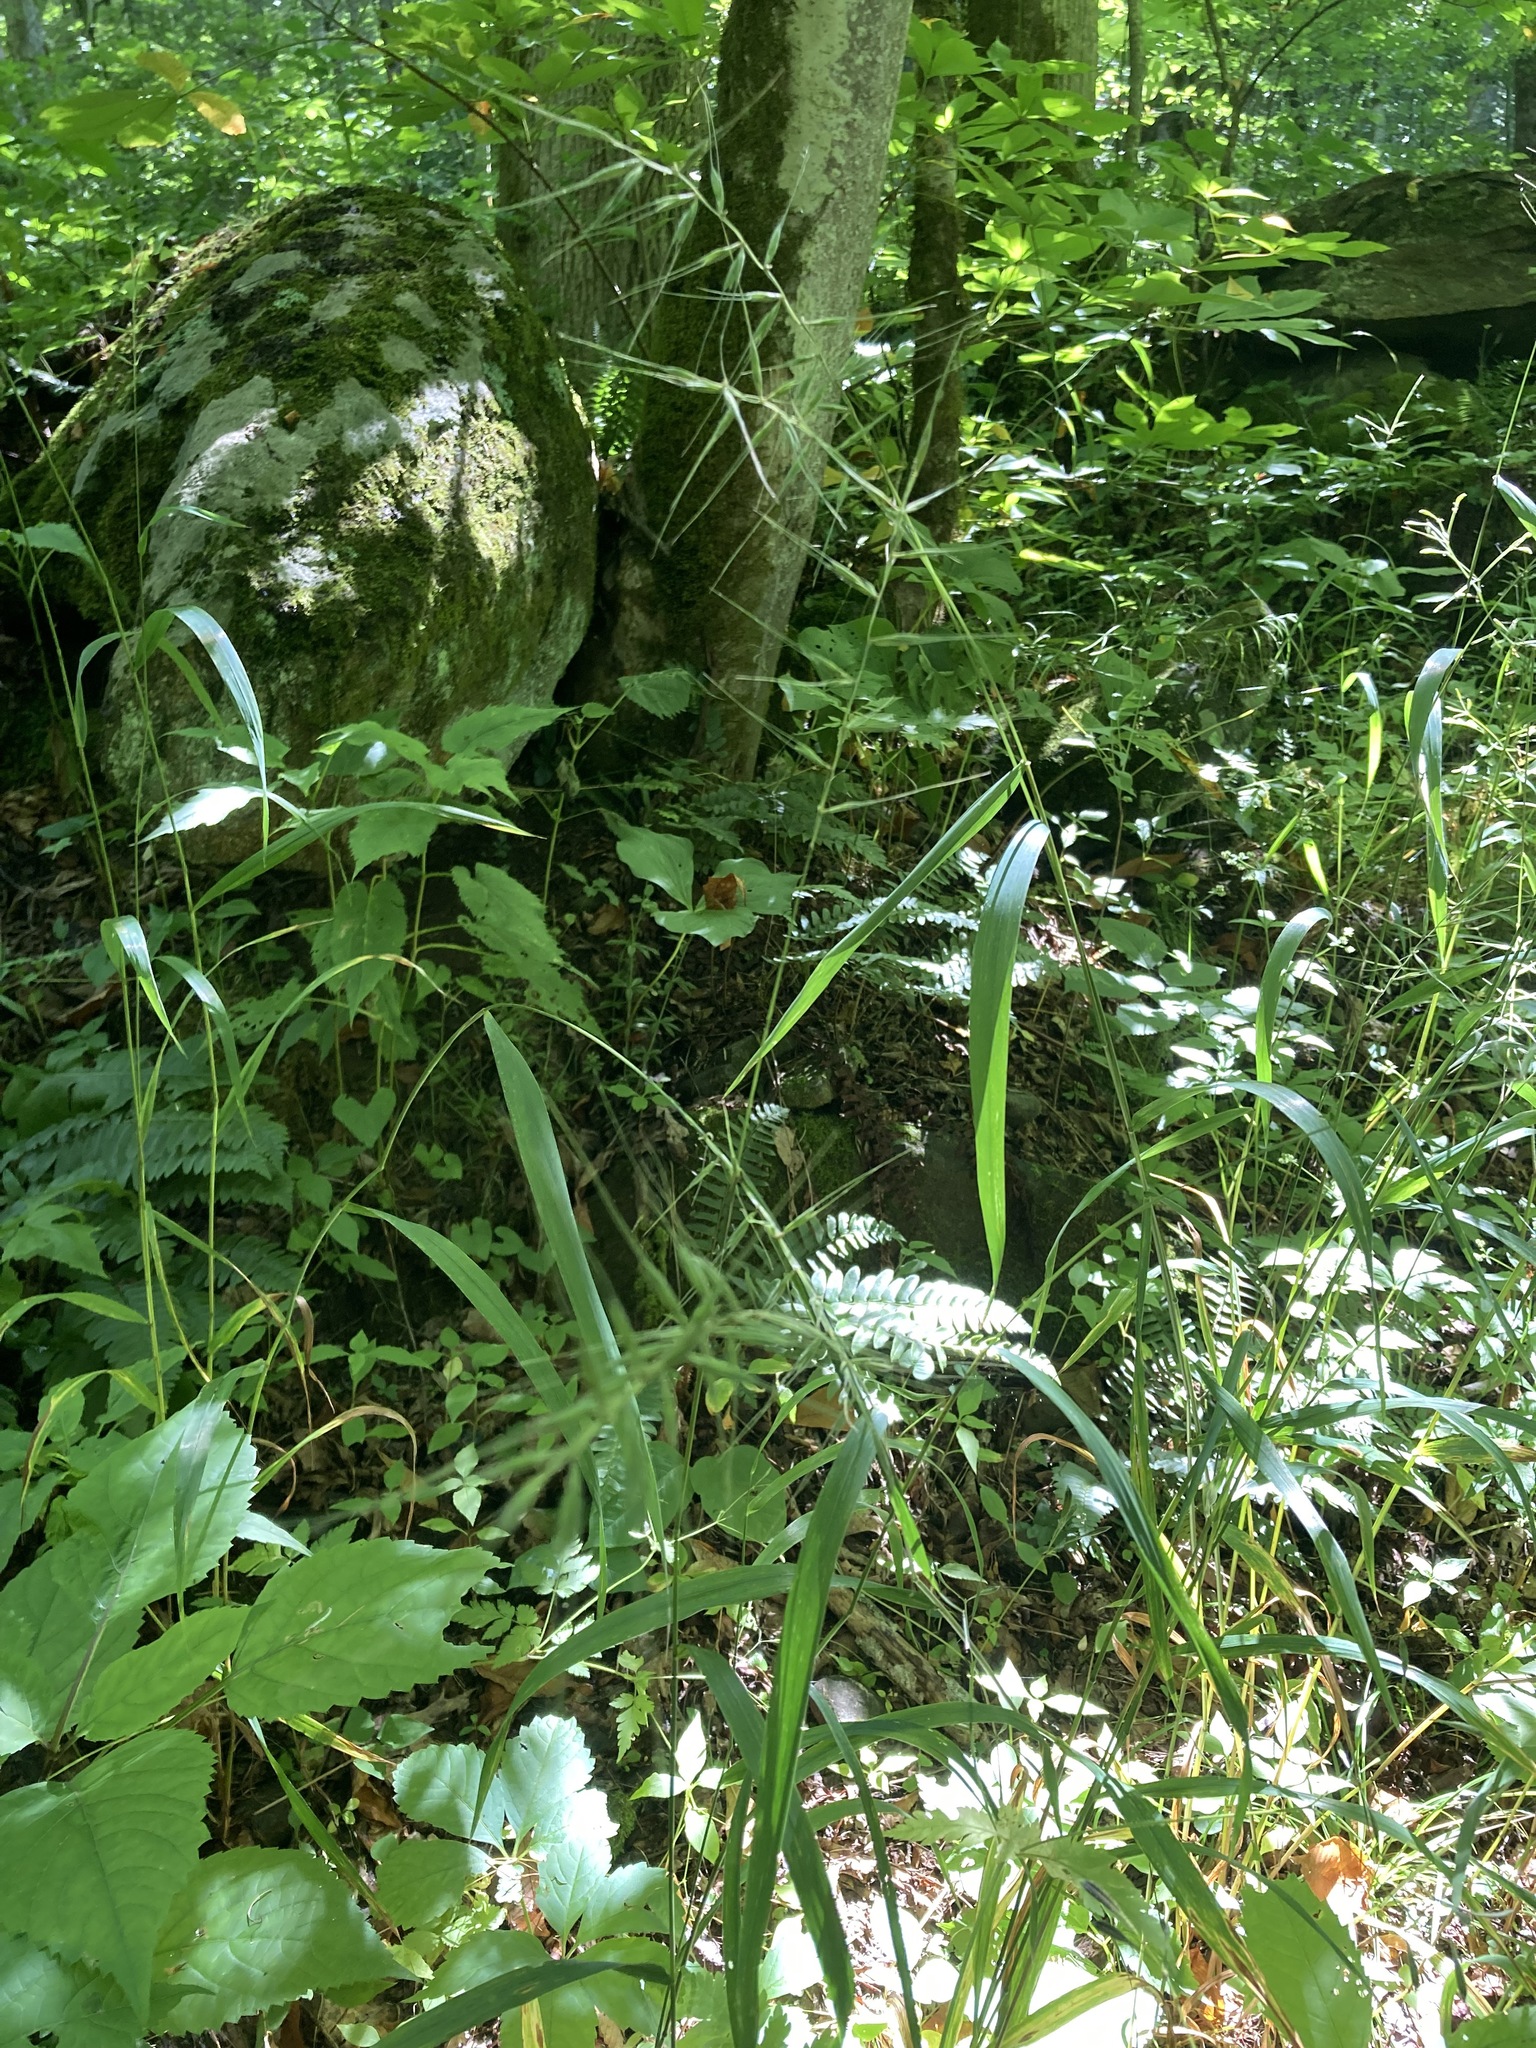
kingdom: Plantae
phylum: Tracheophyta
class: Liliopsida
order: Poales
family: Poaceae
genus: Elymus
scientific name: Elymus hystrix
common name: Bottlebrush grass
